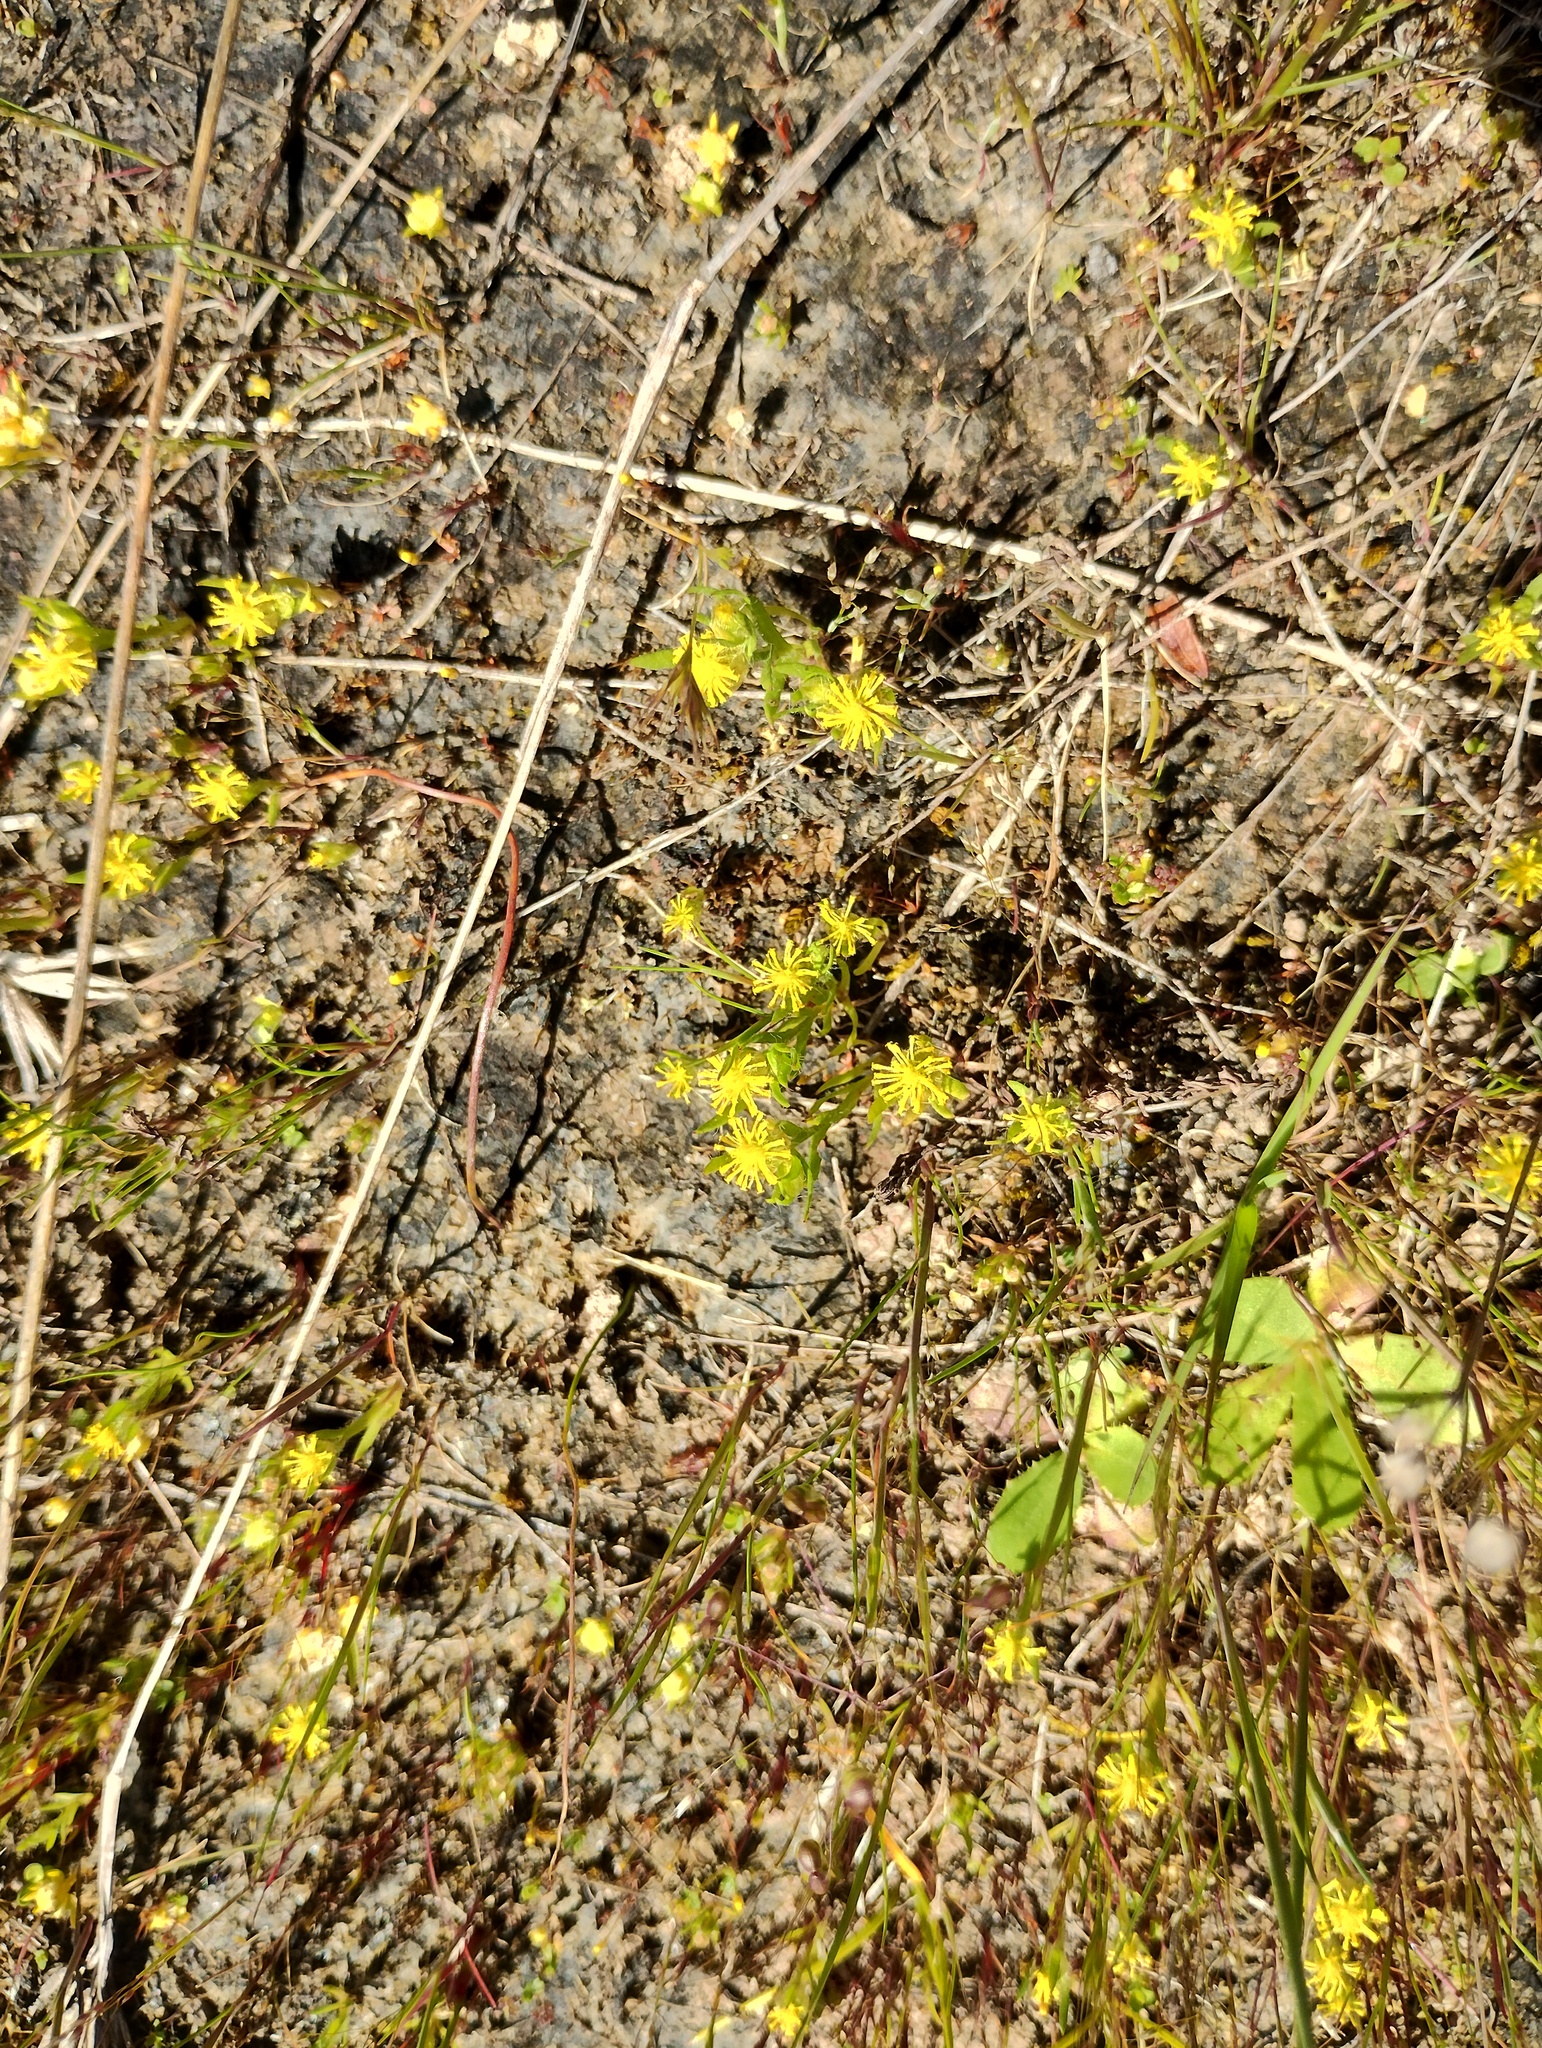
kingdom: Plantae
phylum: Tracheophyta
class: Magnoliopsida
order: Asterales
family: Asteraceae
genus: Triptilodiscus
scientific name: Triptilodiscus pygmaeus
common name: Common sunray
